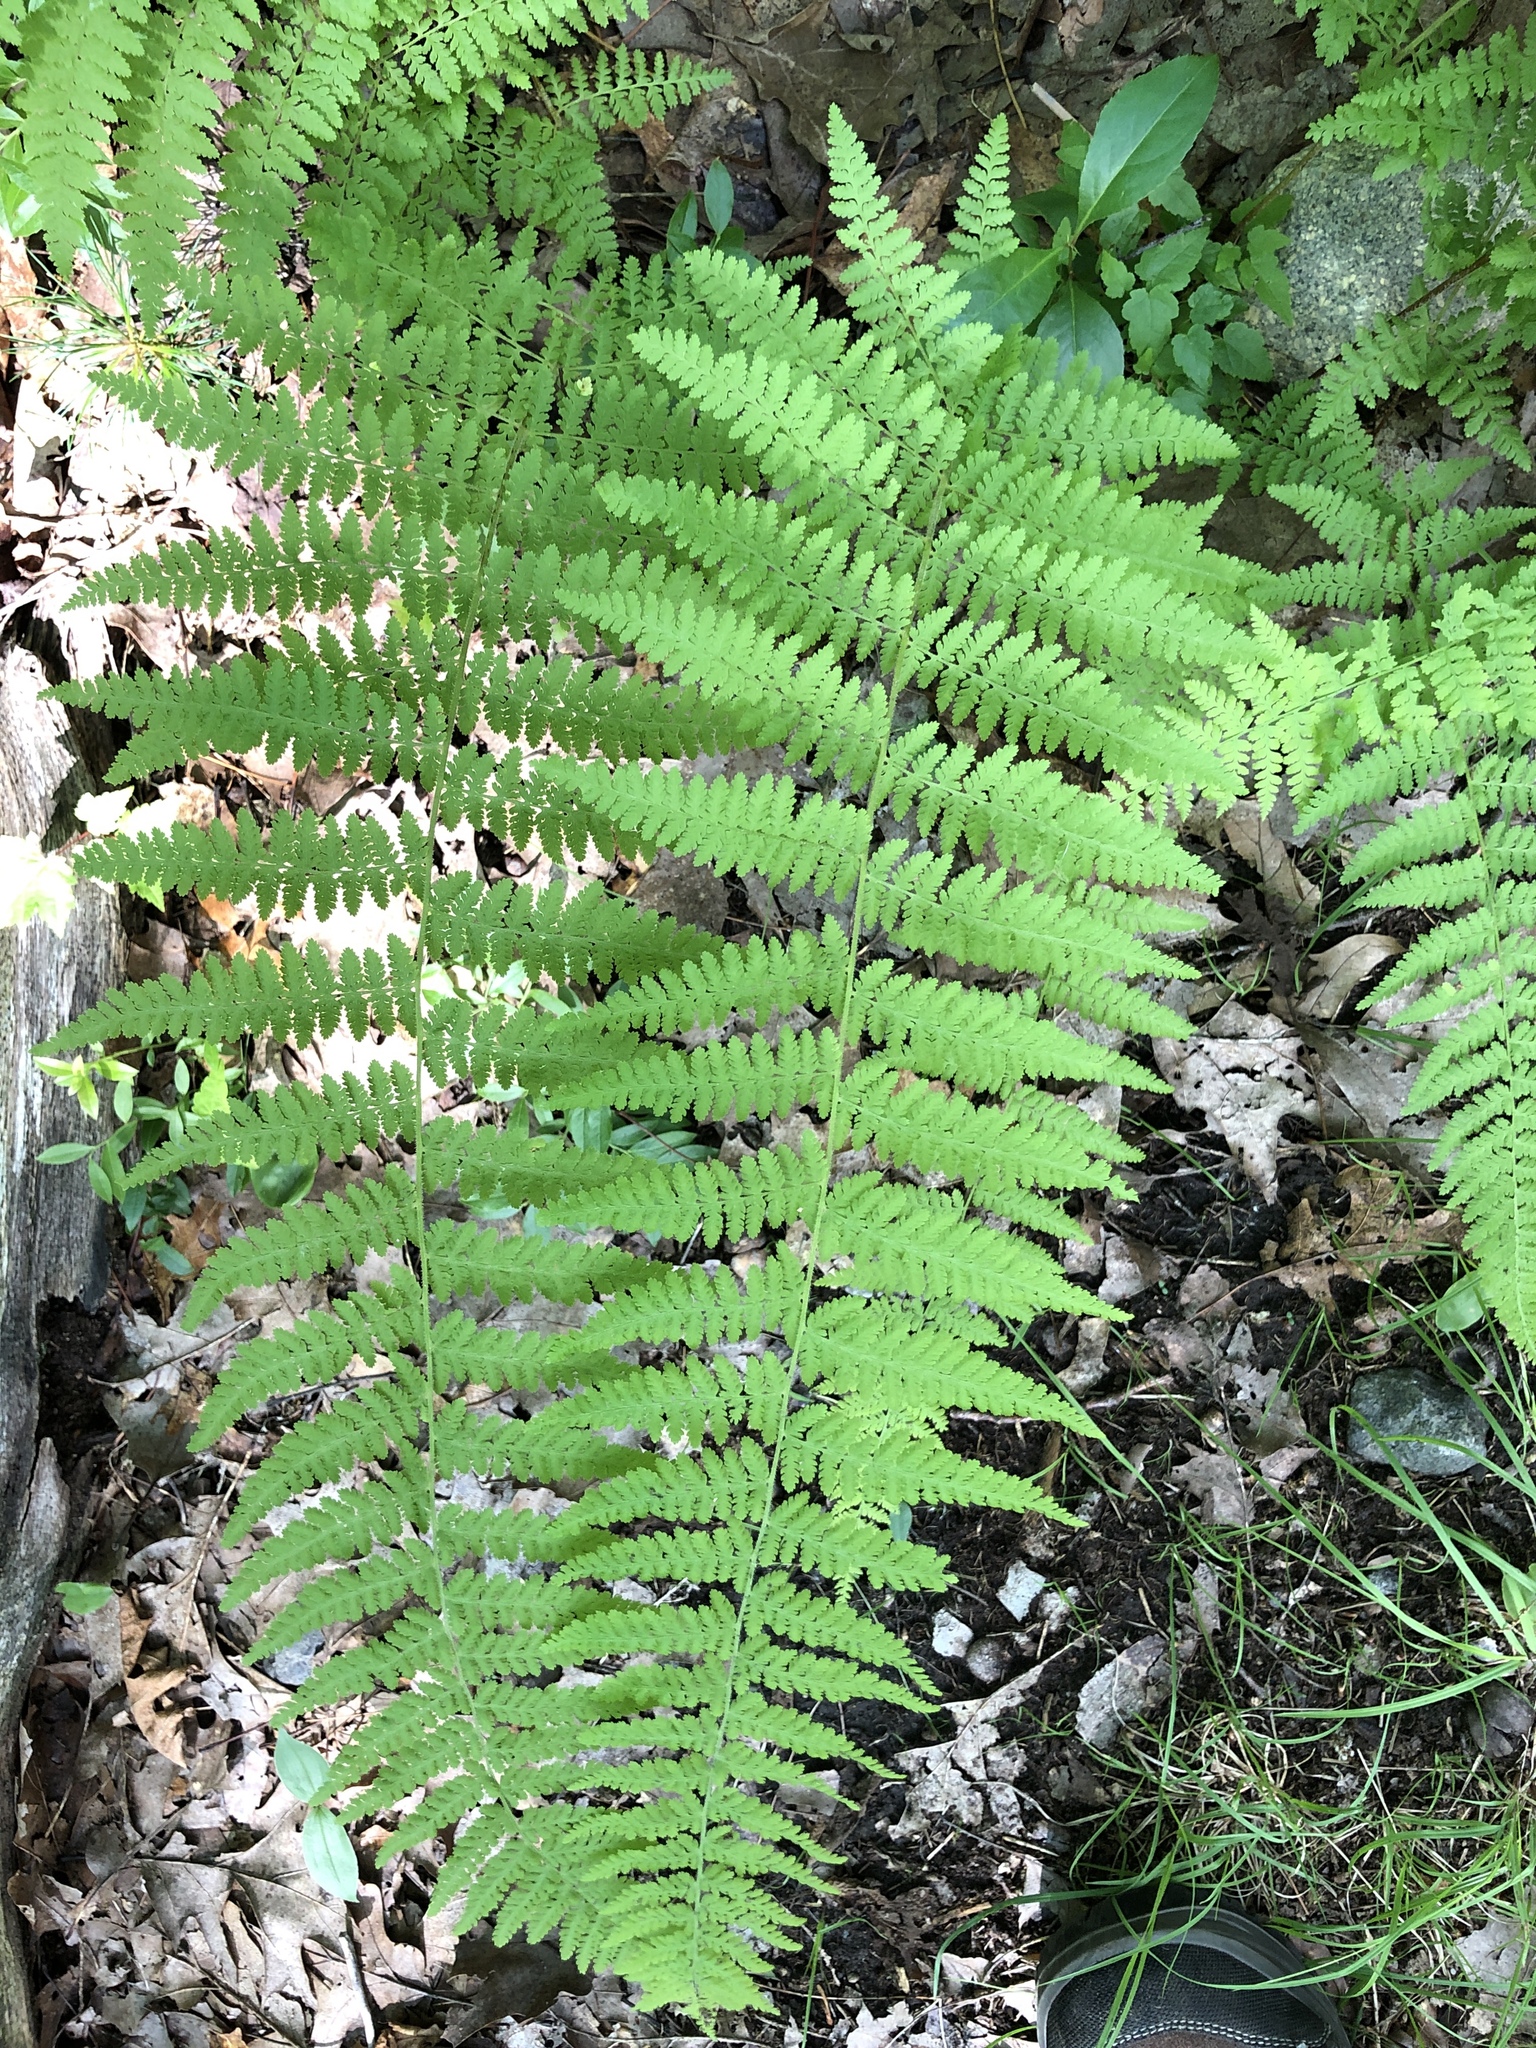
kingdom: Plantae
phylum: Tracheophyta
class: Polypodiopsida
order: Polypodiales
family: Dennstaedtiaceae
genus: Sitobolium
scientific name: Sitobolium punctilobum
